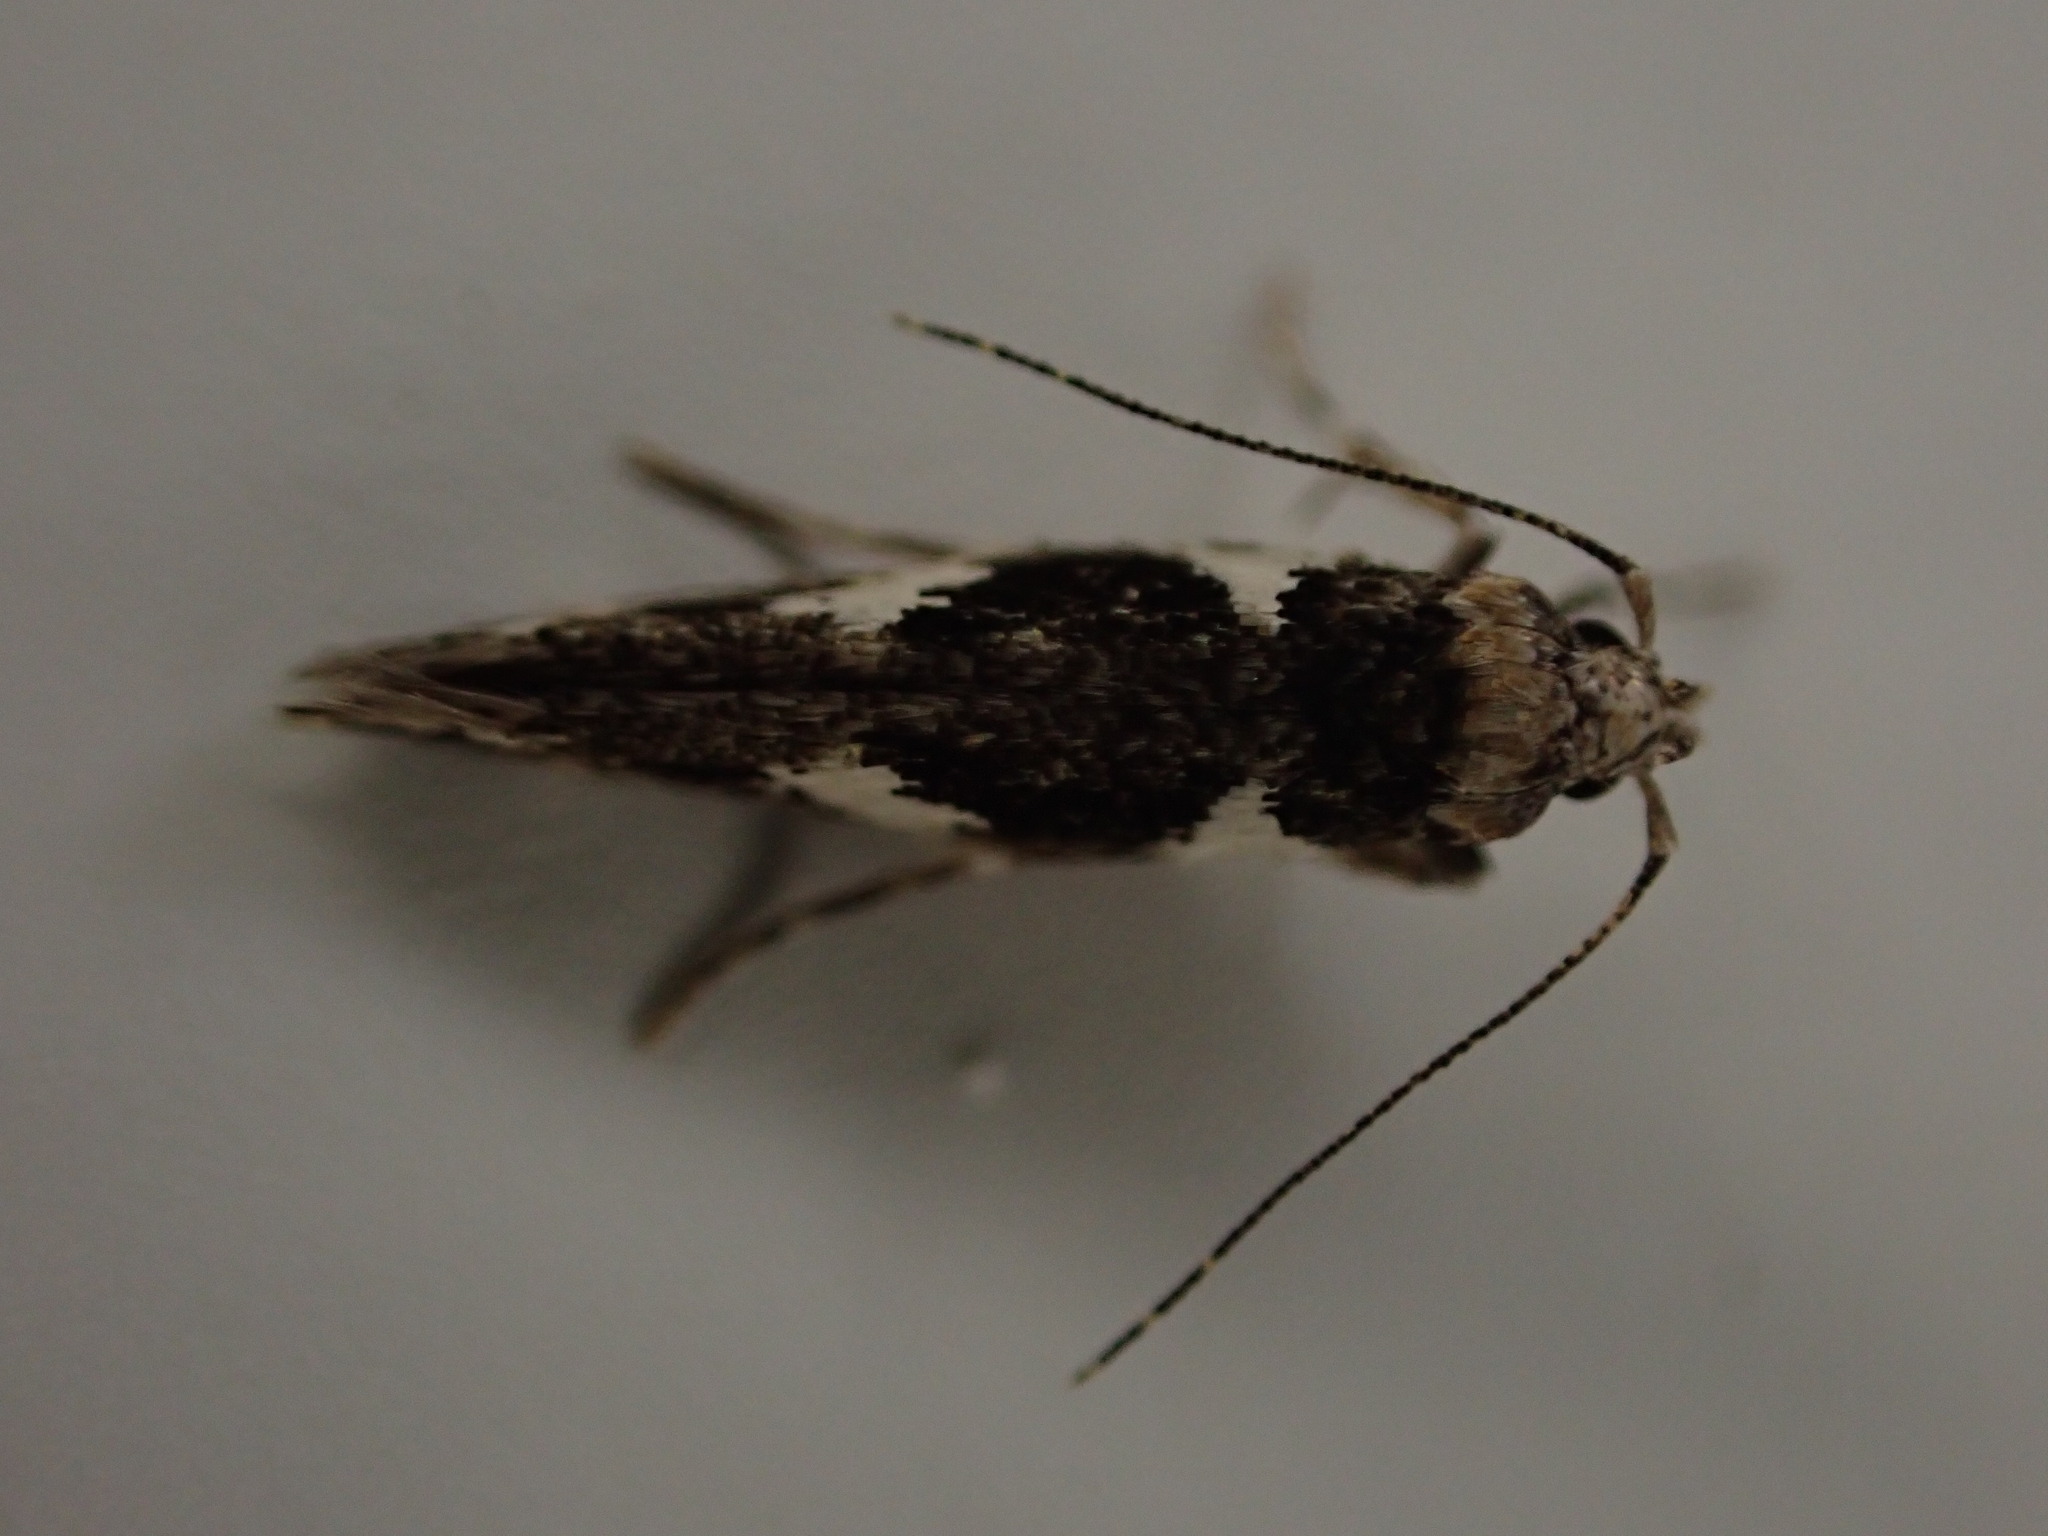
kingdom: Animalia
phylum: Arthropoda
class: Insecta
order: Lepidoptera
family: Cosmopterigidae
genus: Pyroderces
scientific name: Pyroderces deamatella
